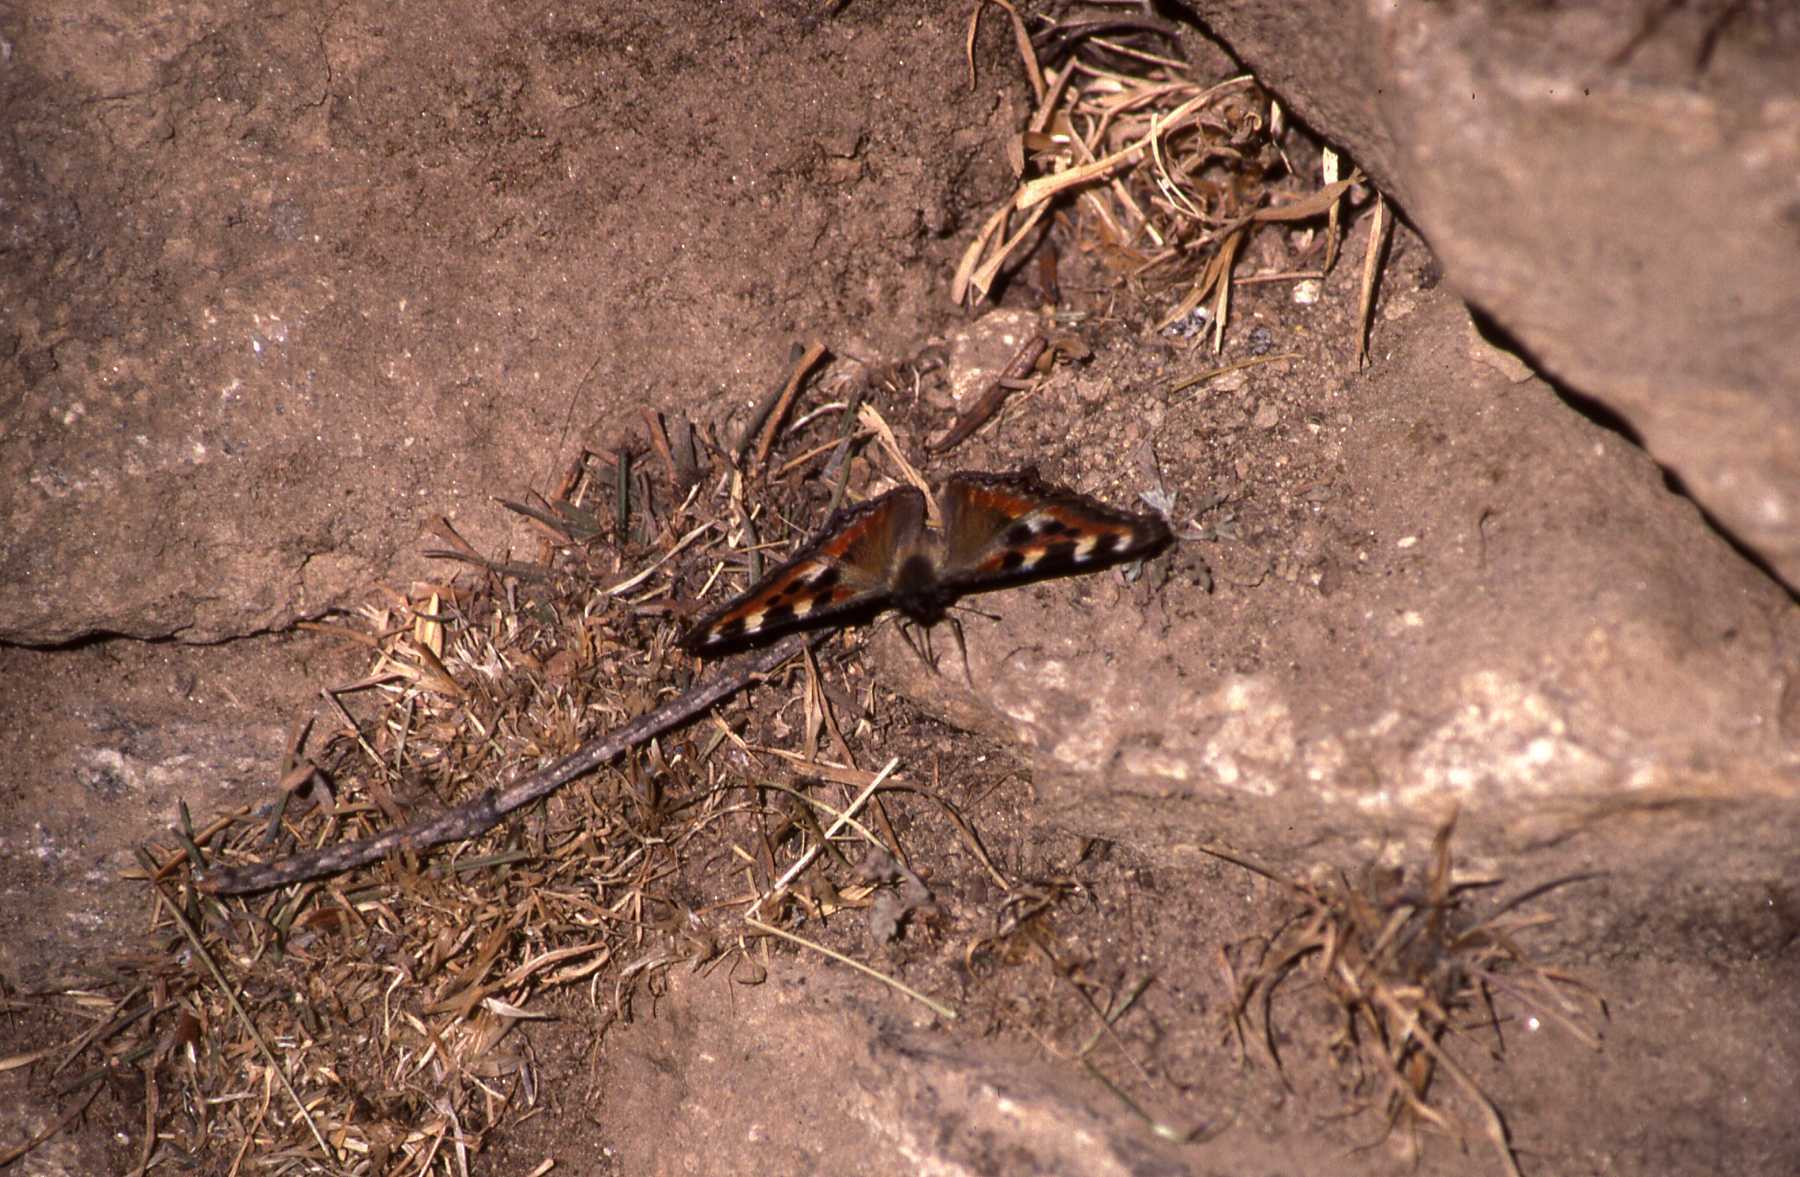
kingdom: Animalia
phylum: Arthropoda
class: Insecta
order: Lepidoptera
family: Nymphalidae
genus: Aglais
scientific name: Aglais caschmirensis
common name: Indian tortoiseshell
